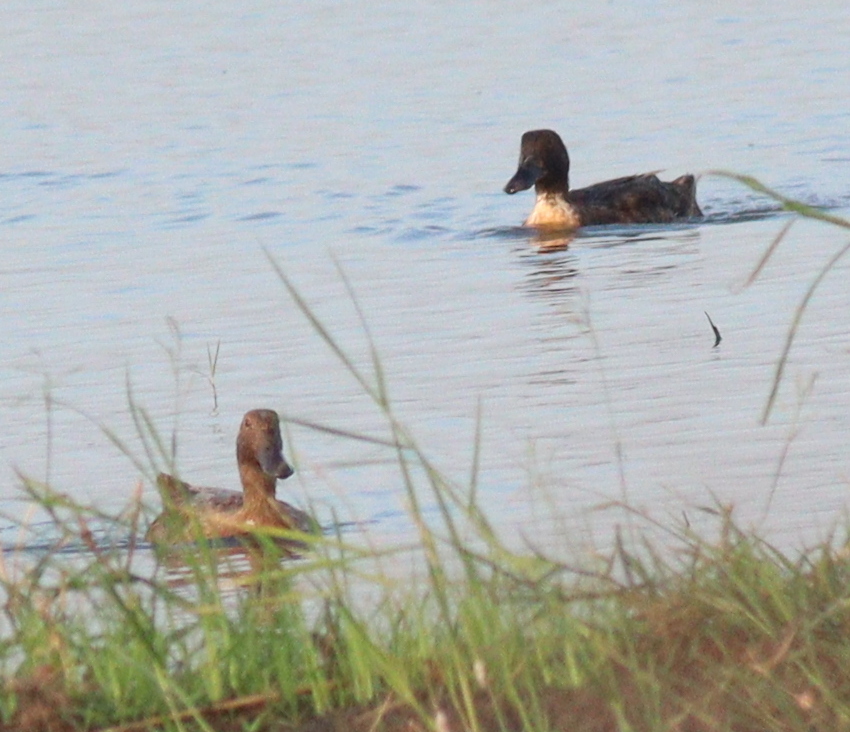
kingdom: Animalia
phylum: Chordata
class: Aves
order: Anseriformes
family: Anatidae
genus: Anas
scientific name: Anas platyrhynchos
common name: Mallard
